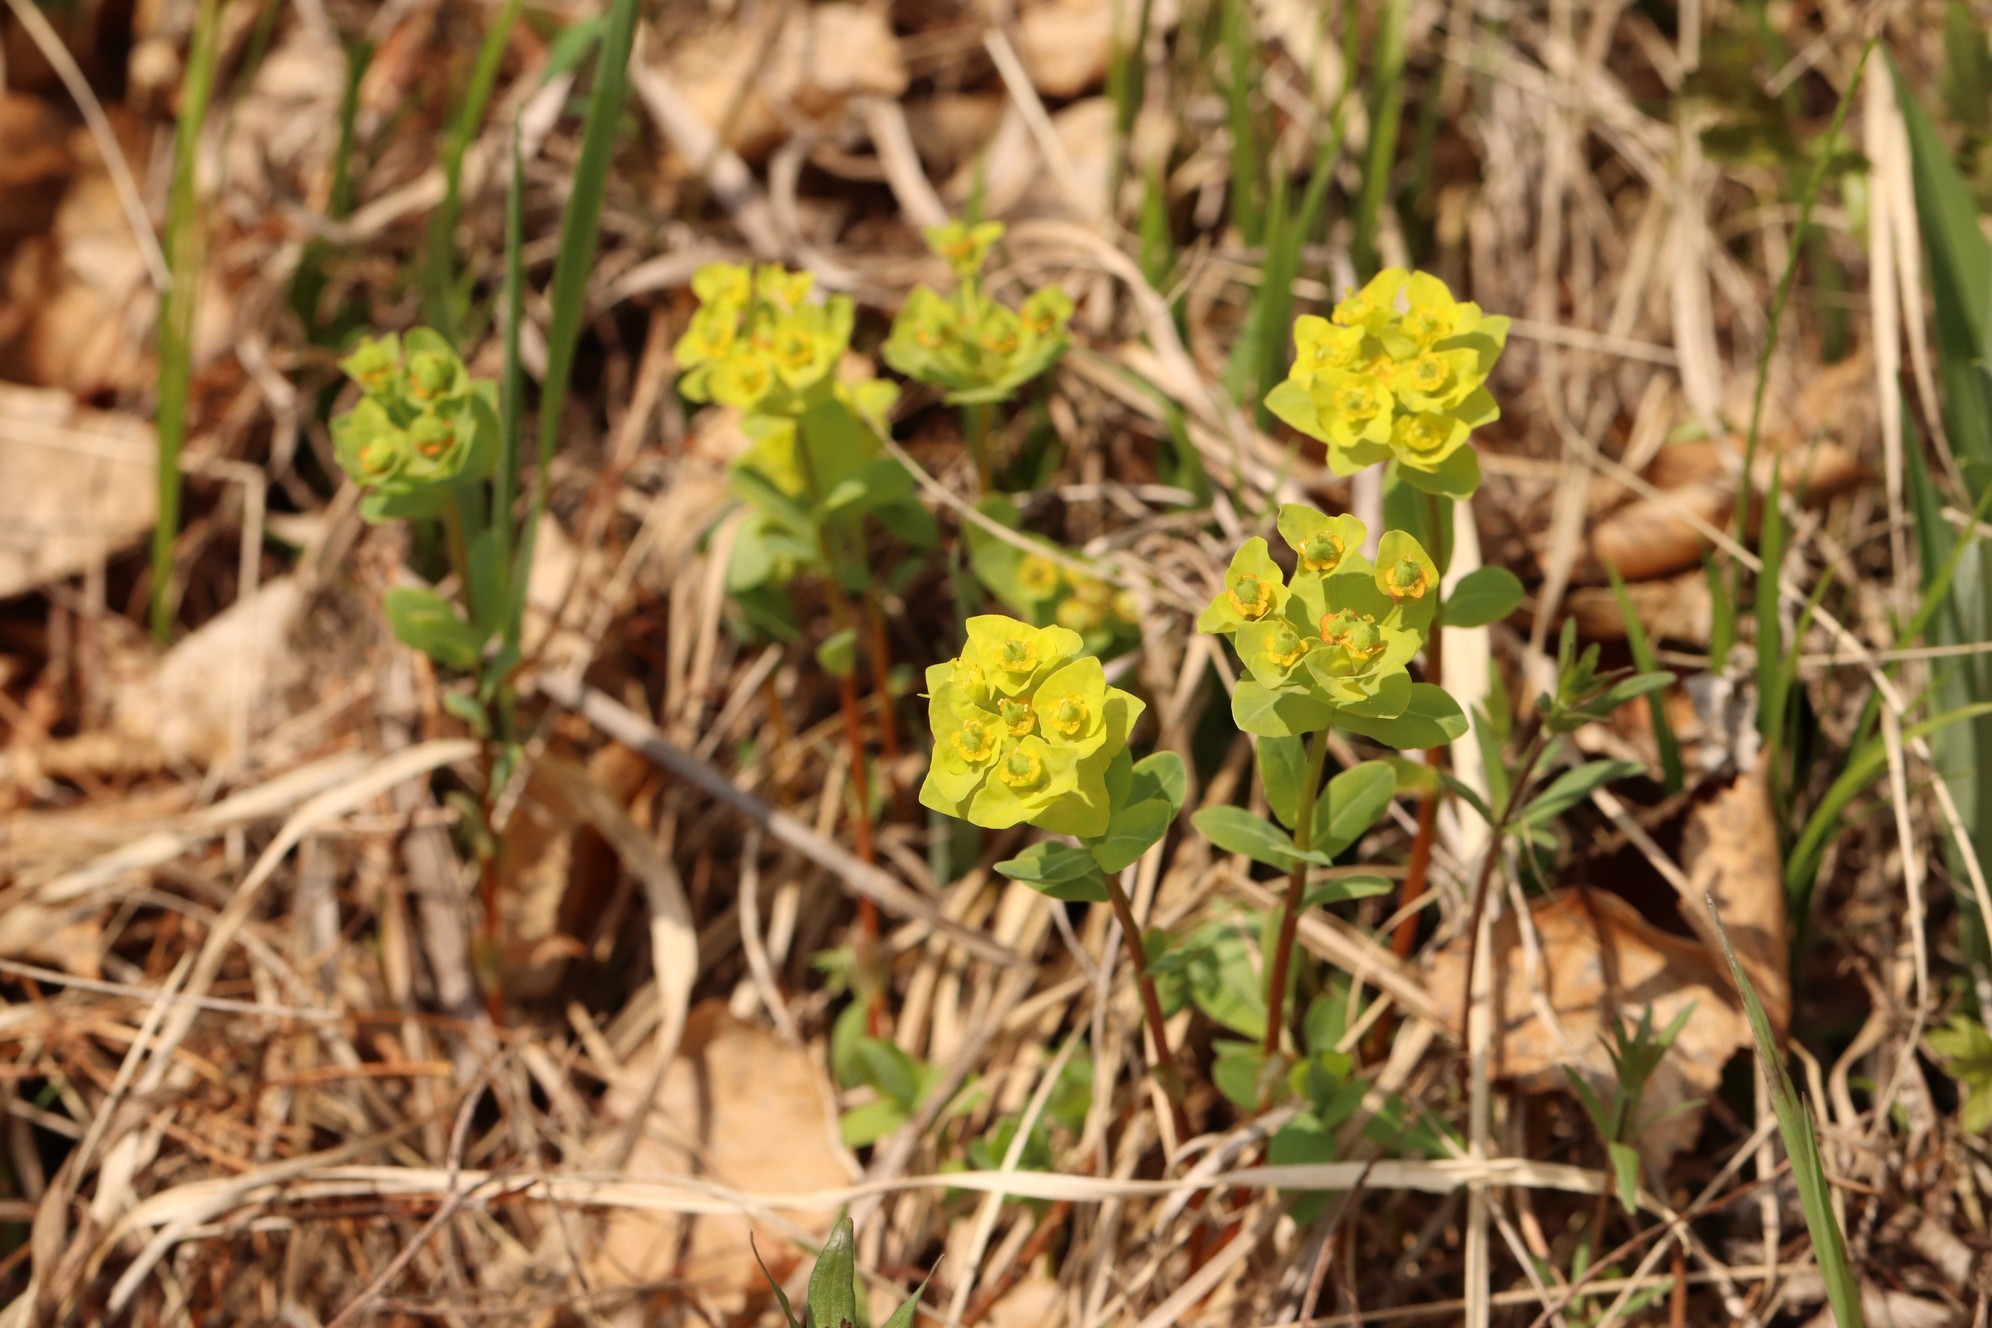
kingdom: Plantae
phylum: Tracheophyta
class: Magnoliopsida
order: Malpighiales
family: Euphorbiaceae
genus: Euphorbia
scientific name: Euphorbia altaica
